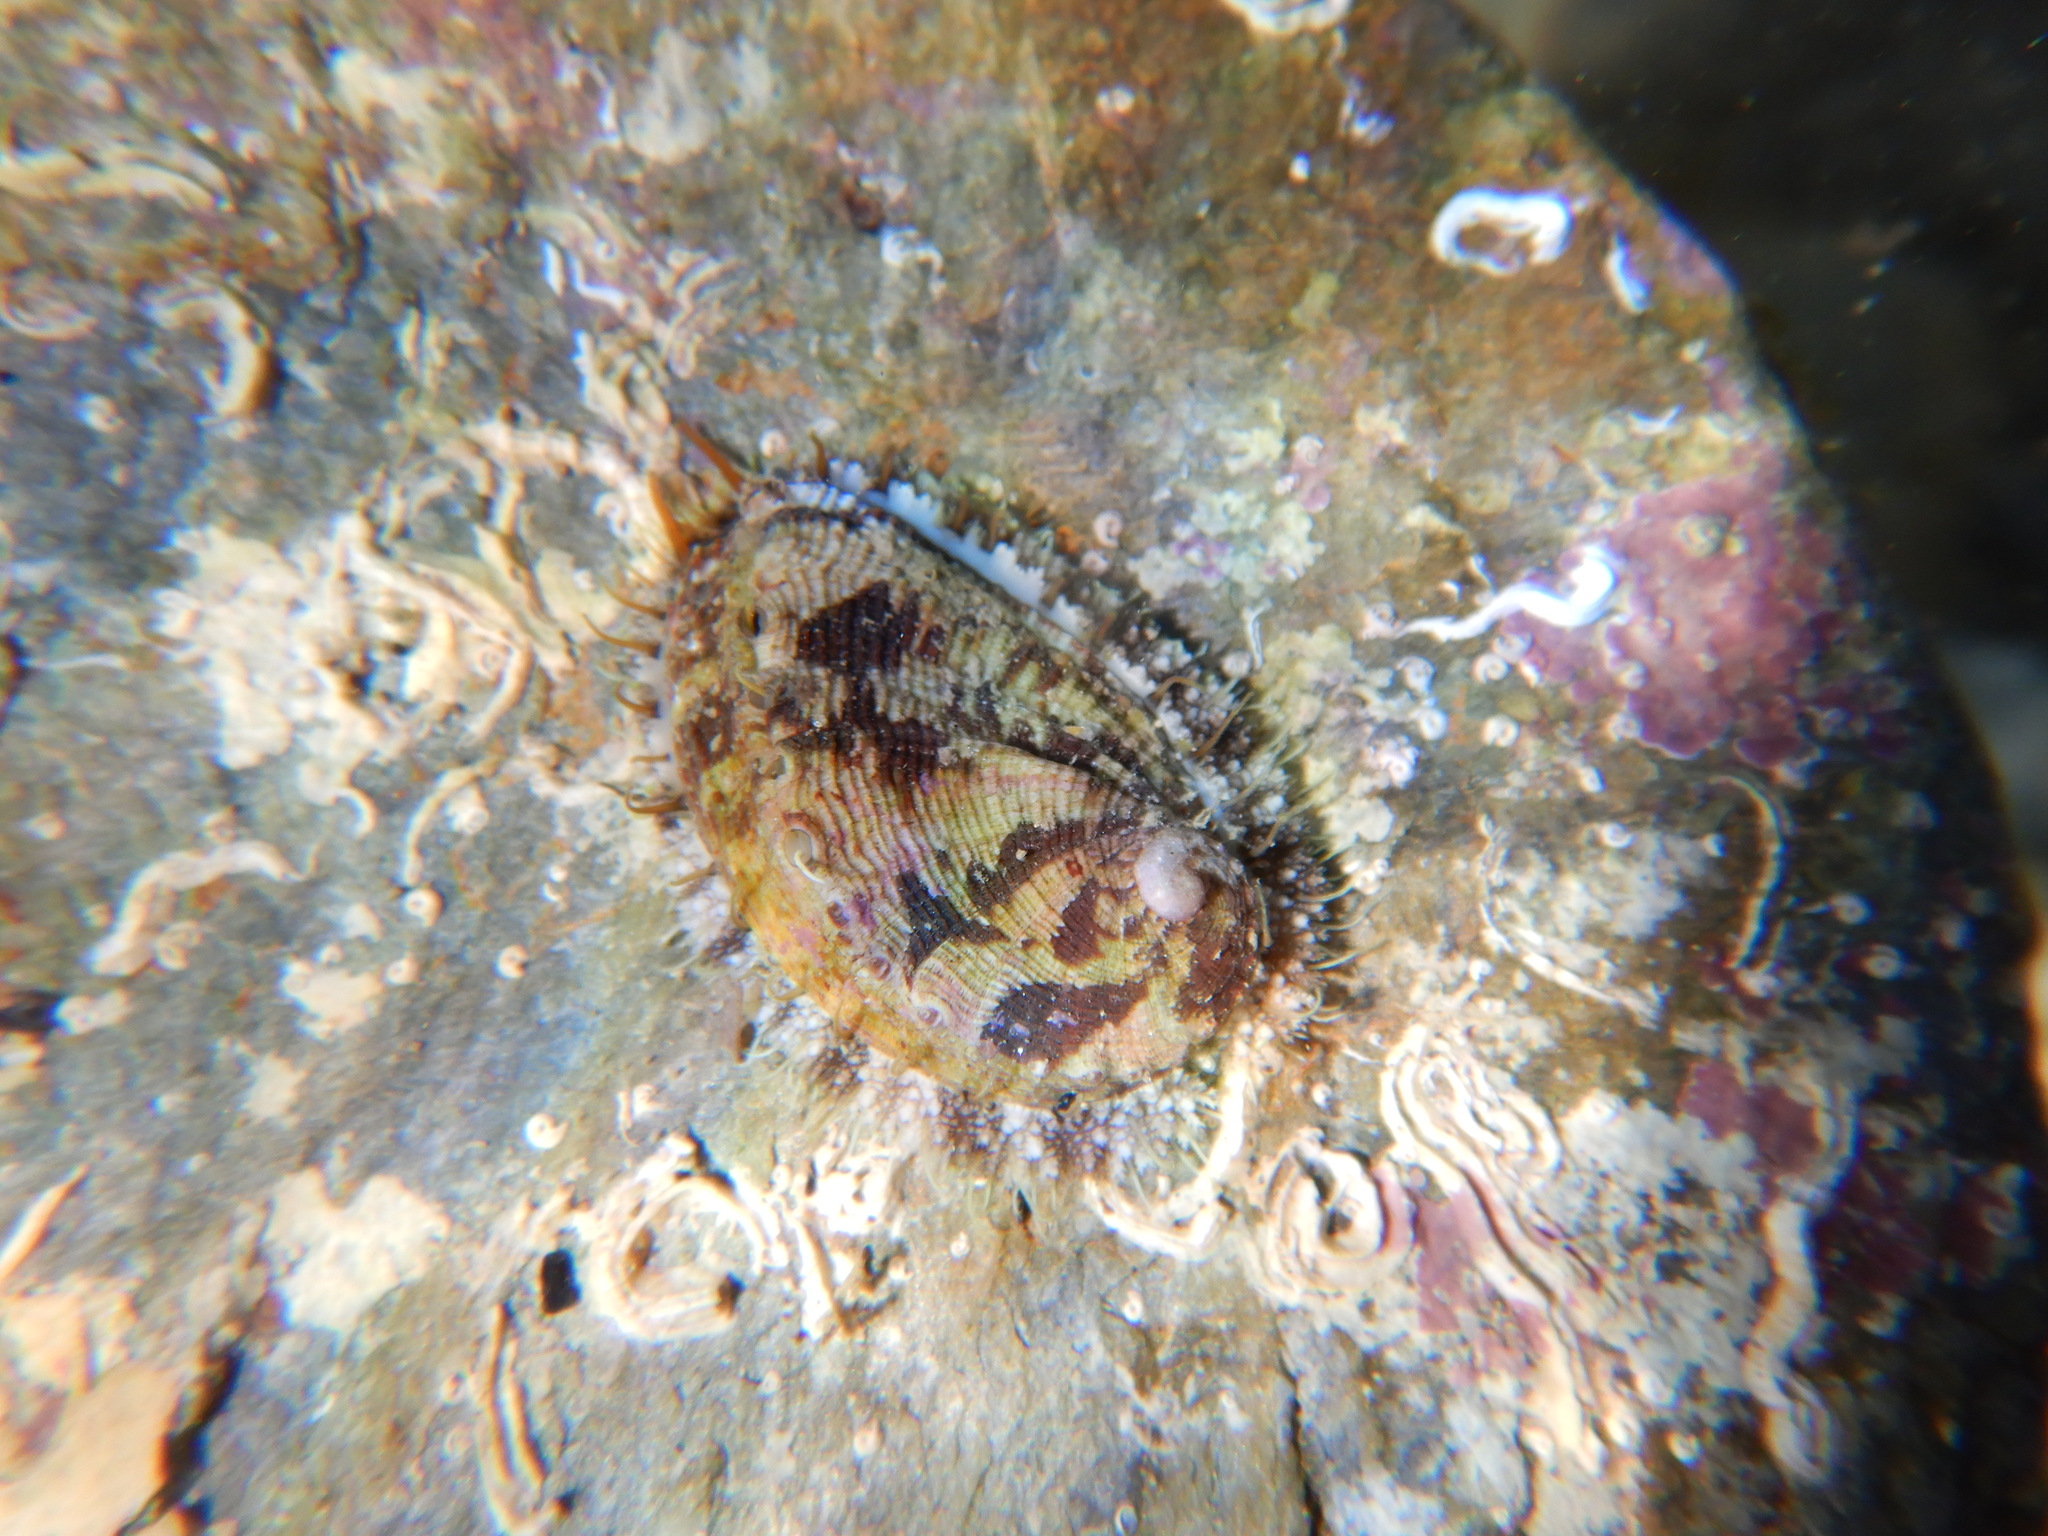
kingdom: Animalia
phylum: Mollusca
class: Gastropoda
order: Lepetellida
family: Haliotidae
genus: Haliotis
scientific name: Haliotis tuberculata
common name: Green ormer
